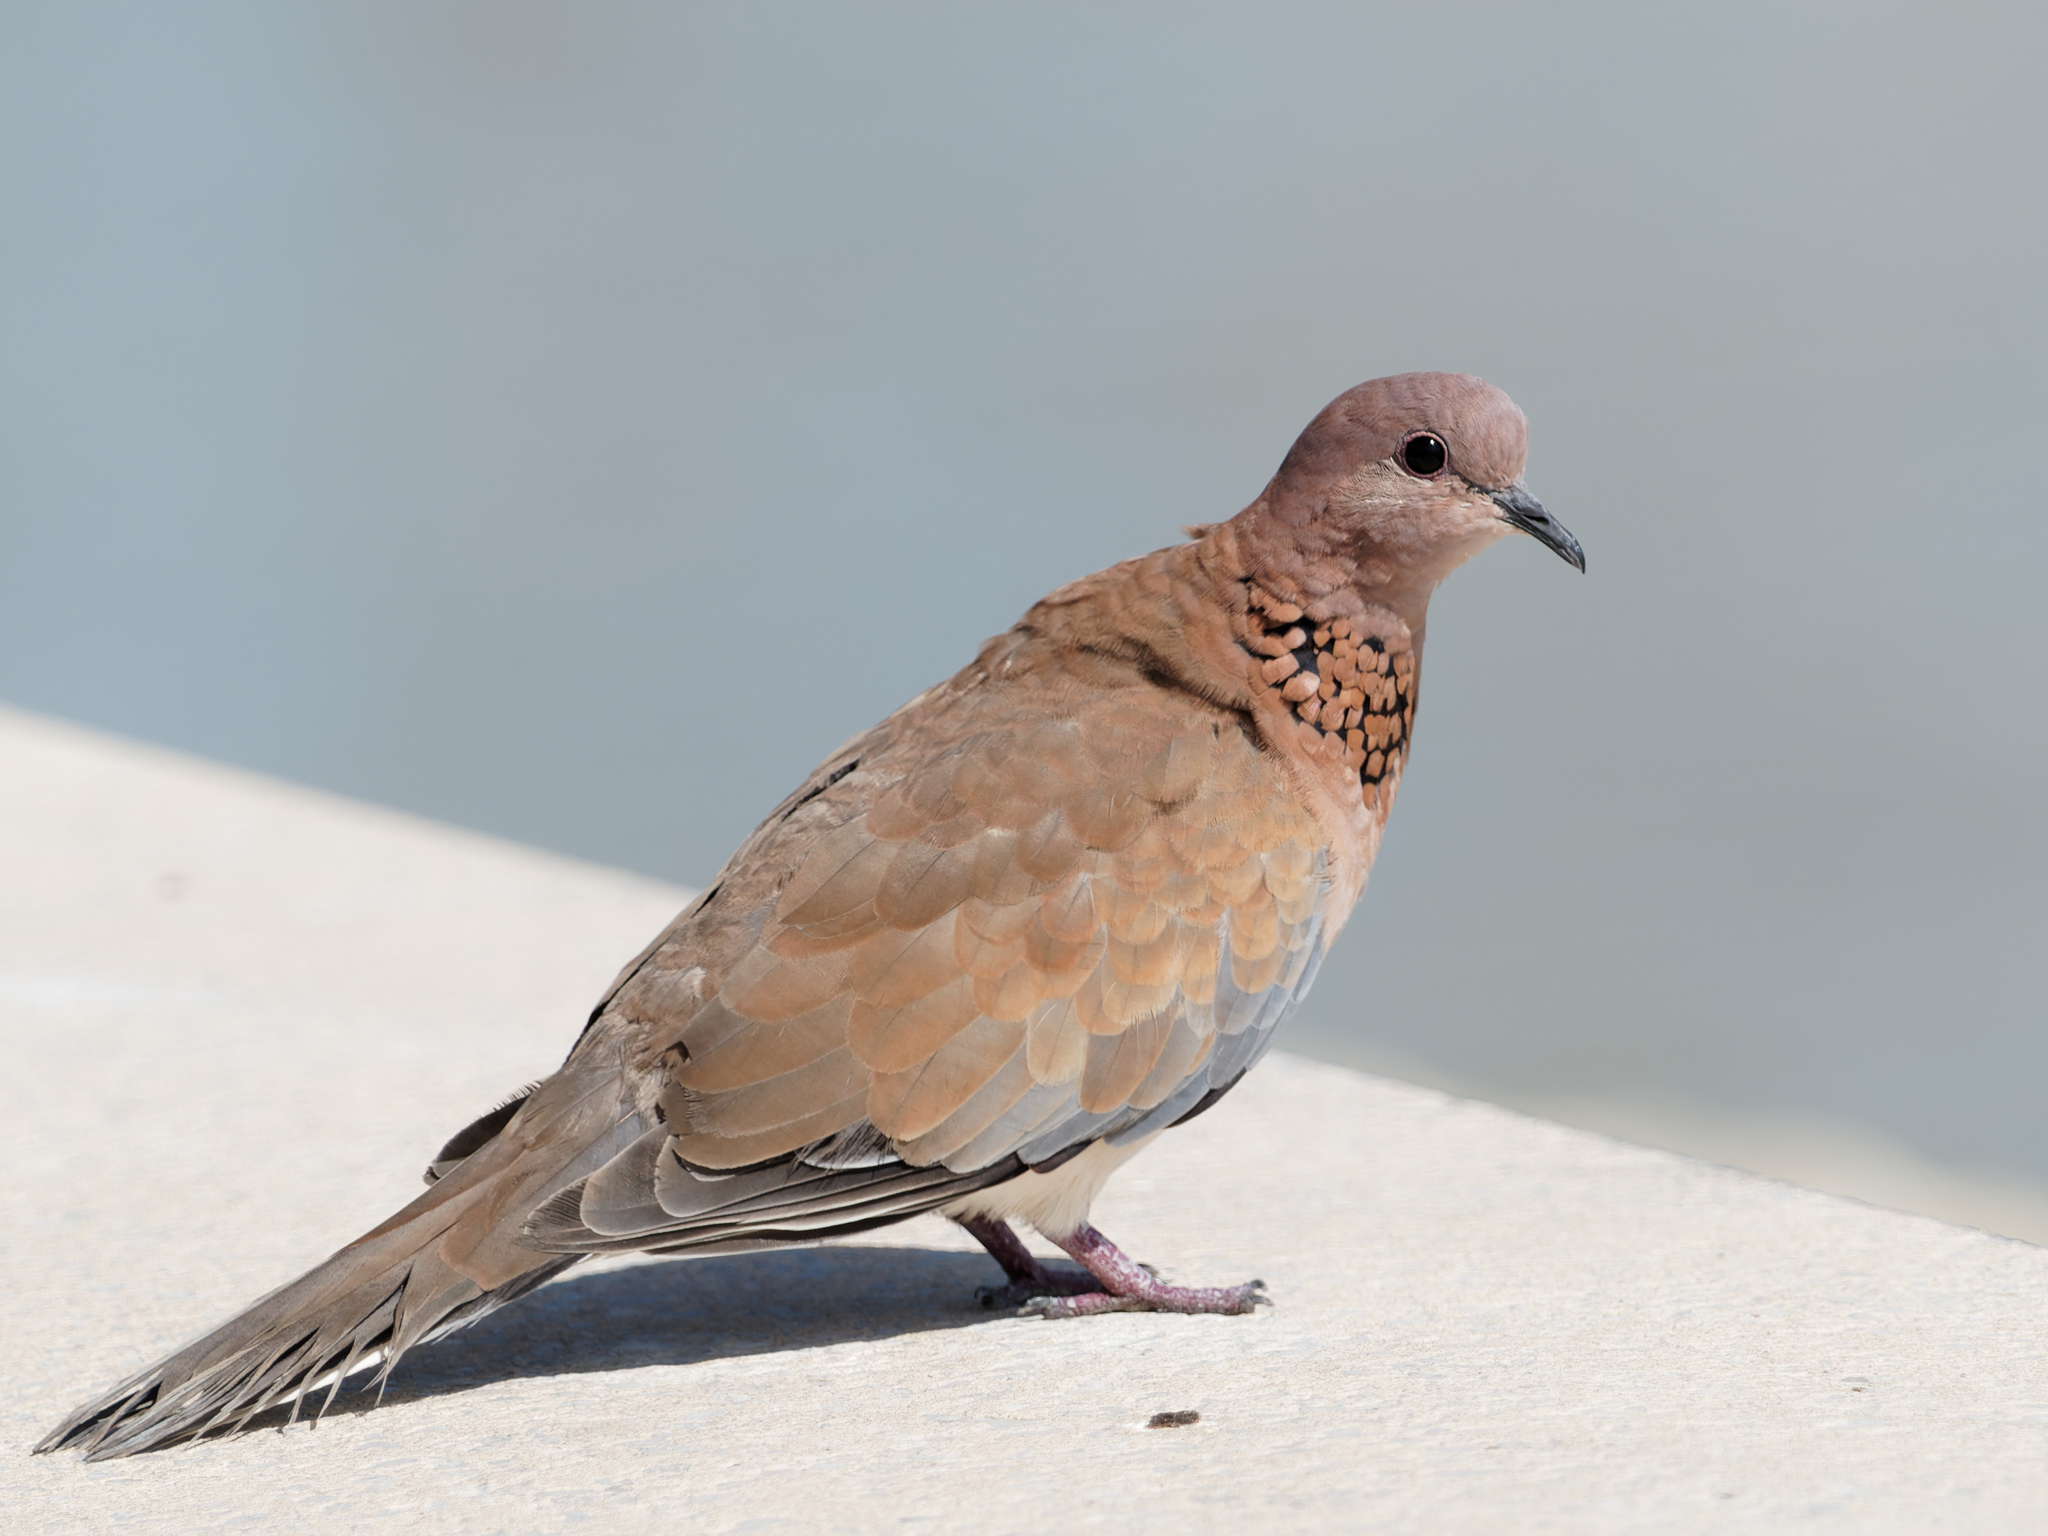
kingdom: Animalia
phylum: Chordata
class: Aves
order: Columbiformes
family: Columbidae
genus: Spilopelia
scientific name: Spilopelia senegalensis
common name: Laughing dove
